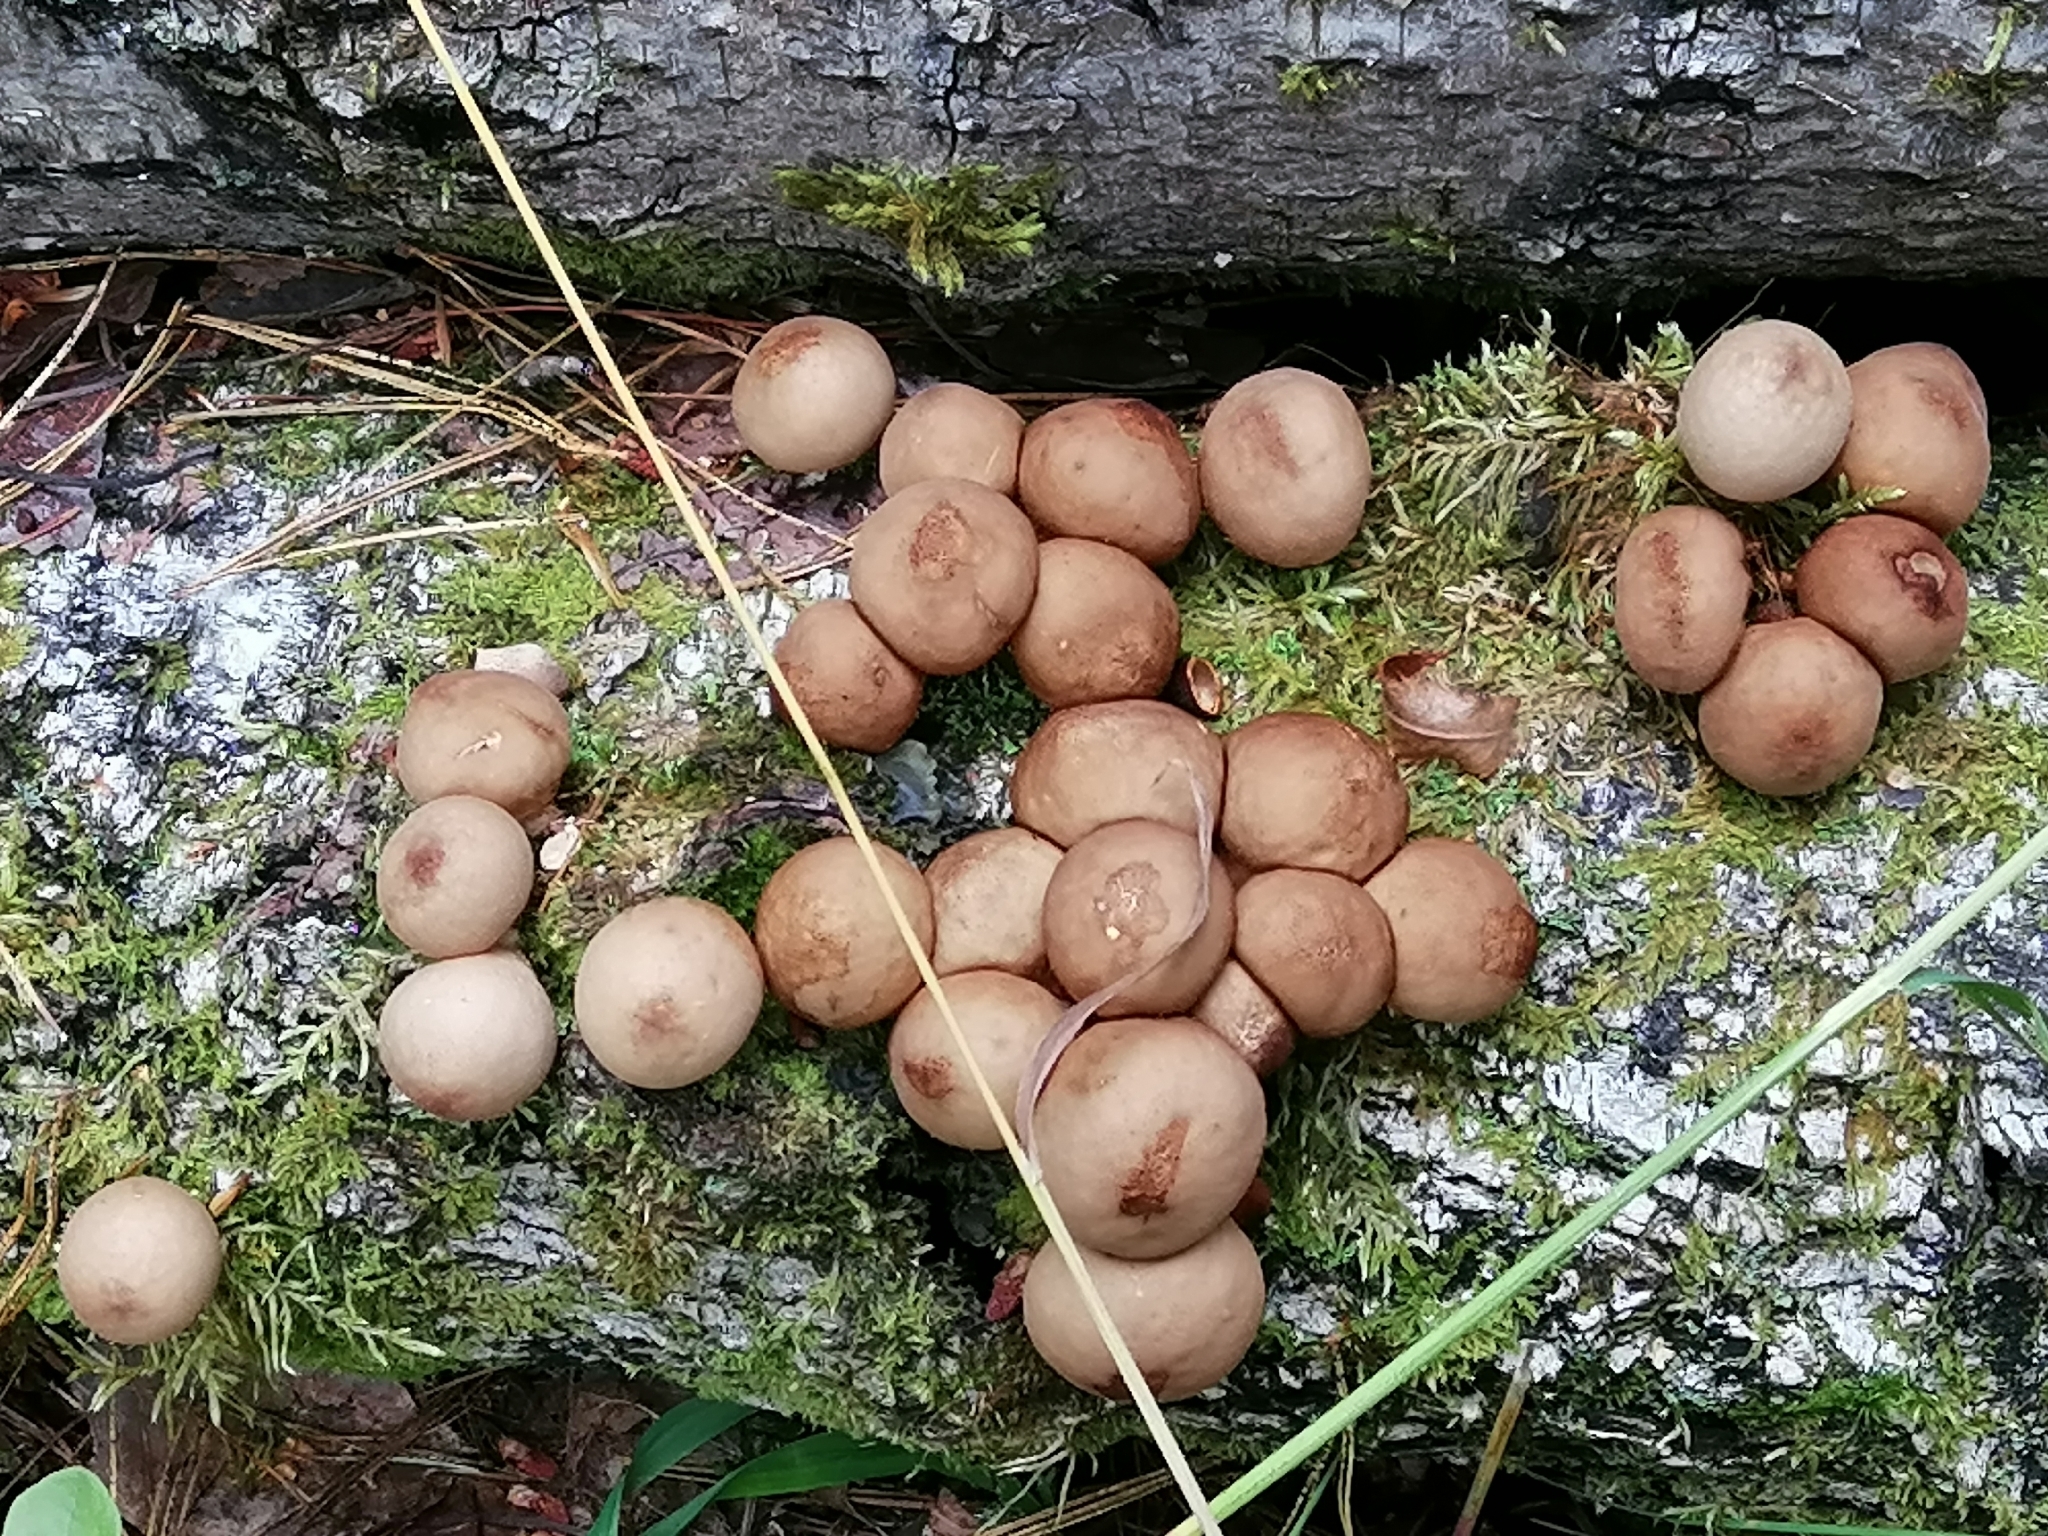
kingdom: Fungi
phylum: Basidiomycota
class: Agaricomycetes
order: Agaricales
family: Lycoperdaceae
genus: Apioperdon
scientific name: Apioperdon pyriforme
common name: Pear-shaped puffball
